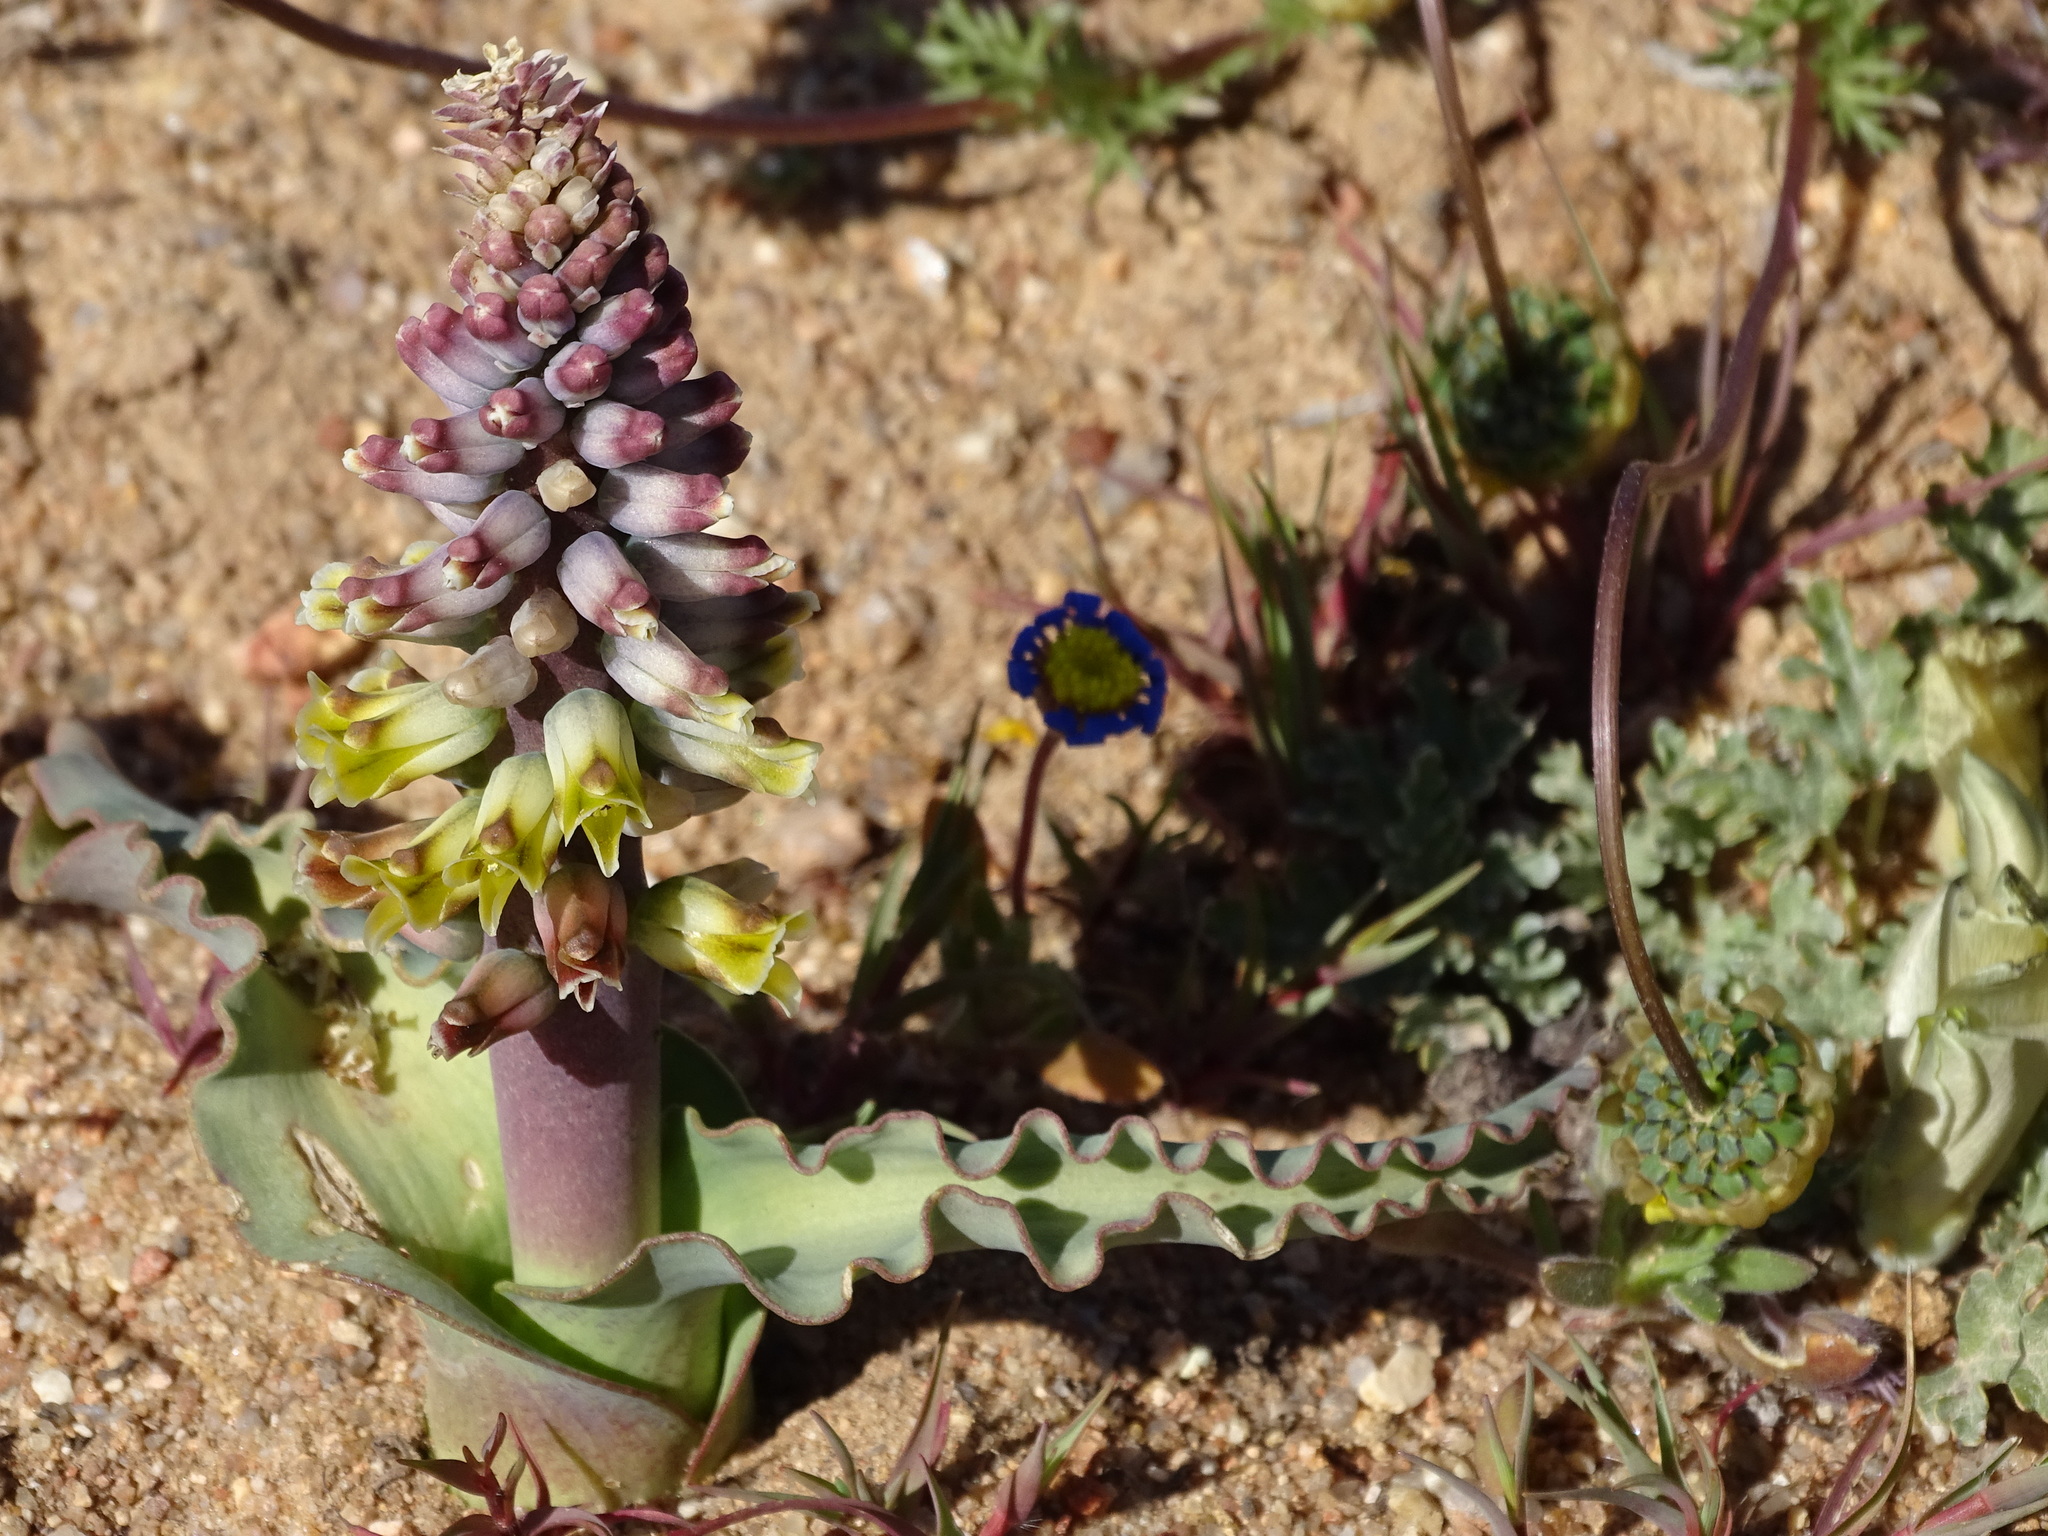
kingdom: Plantae
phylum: Tracheophyta
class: Liliopsida
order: Asparagales
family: Asparagaceae
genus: Lachenalia
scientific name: Lachenalia mutabilis
